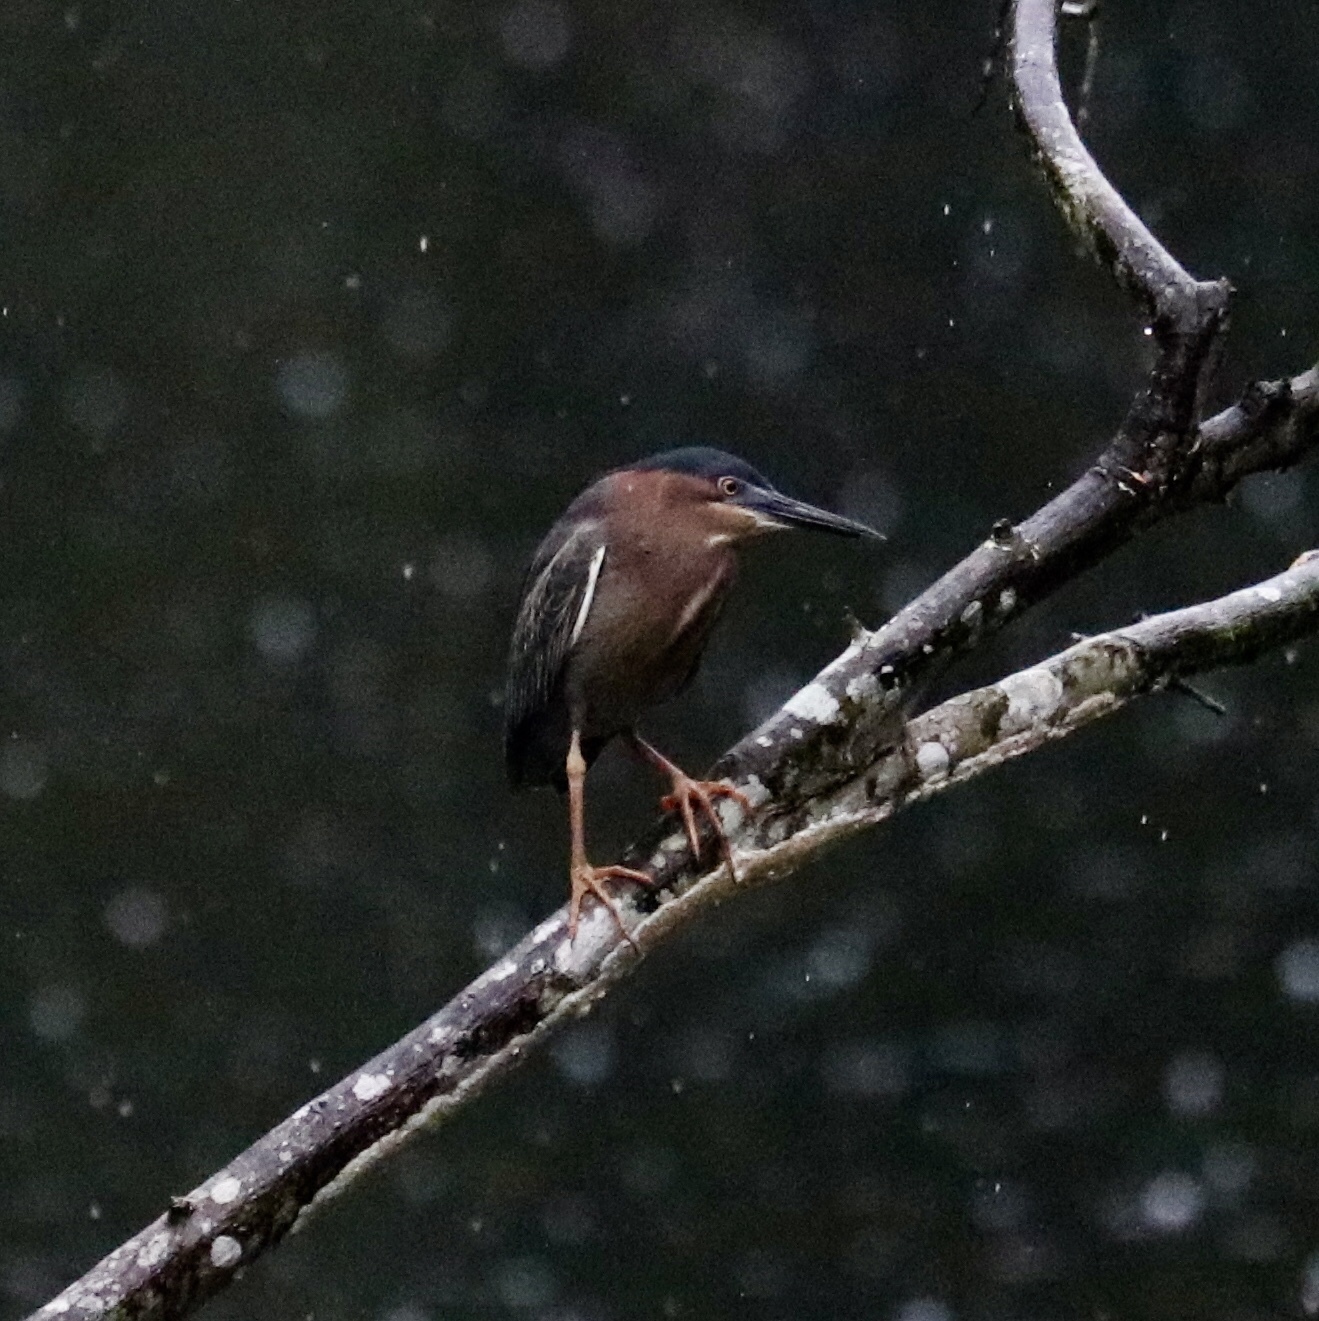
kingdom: Animalia
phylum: Chordata
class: Aves
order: Pelecaniformes
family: Ardeidae
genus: Butorides
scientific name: Butorides virescens
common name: Green heron
